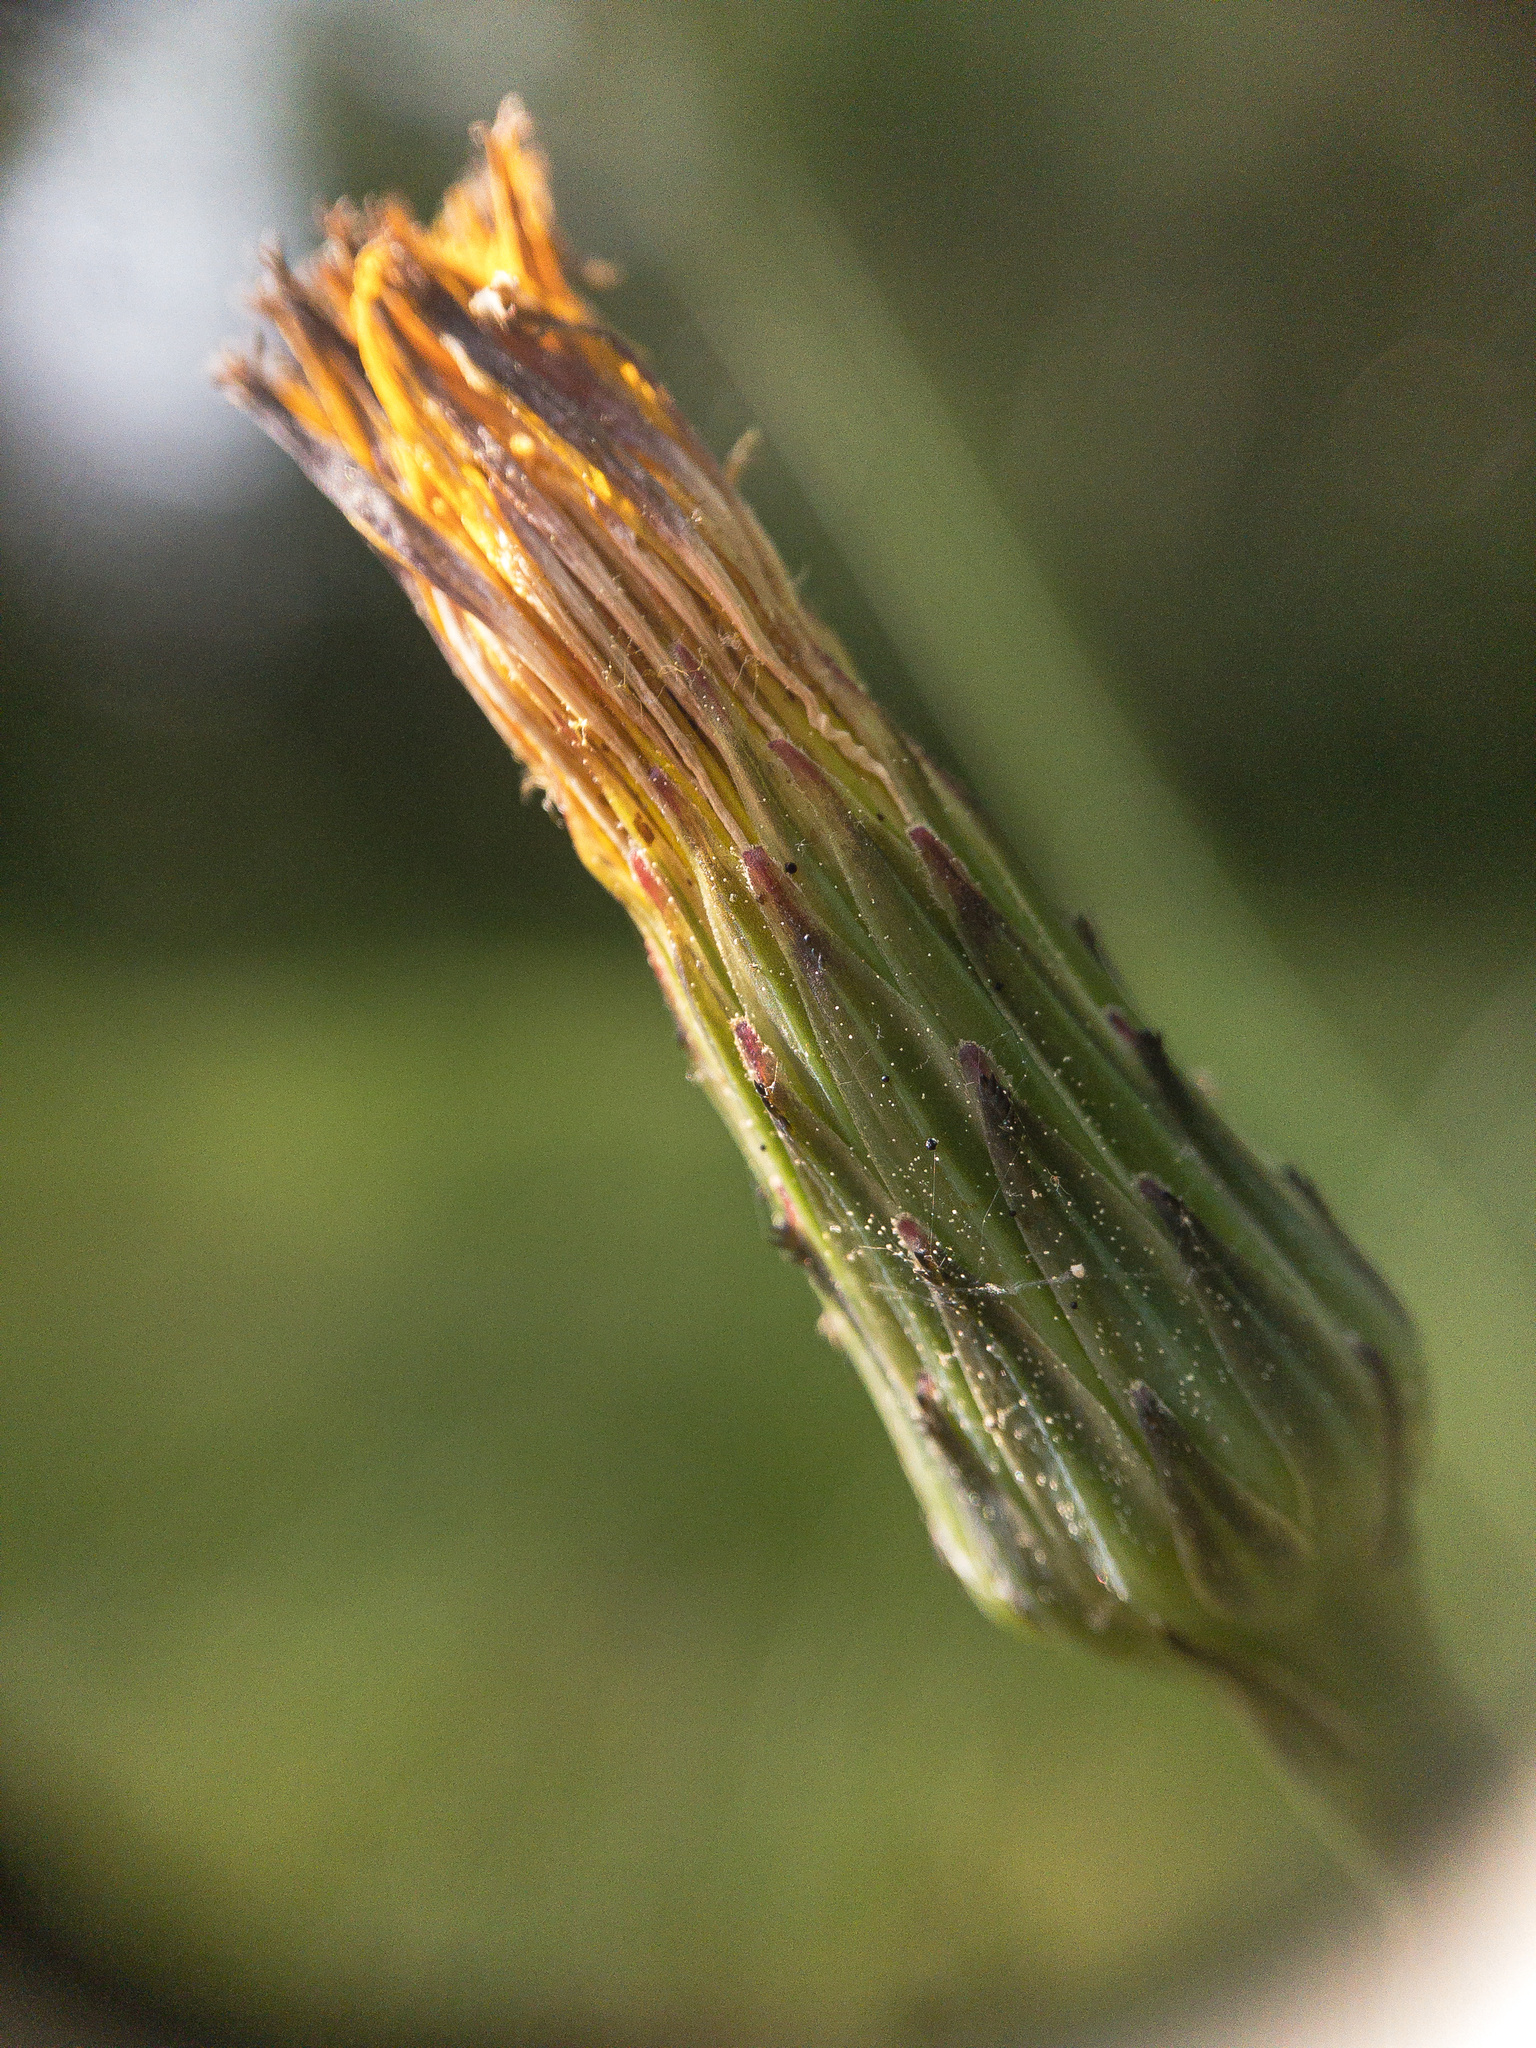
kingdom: Plantae
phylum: Tracheophyta
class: Magnoliopsida
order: Asterales
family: Asteraceae
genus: Hypochaeris
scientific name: Hypochaeris radicata
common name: Flatweed
